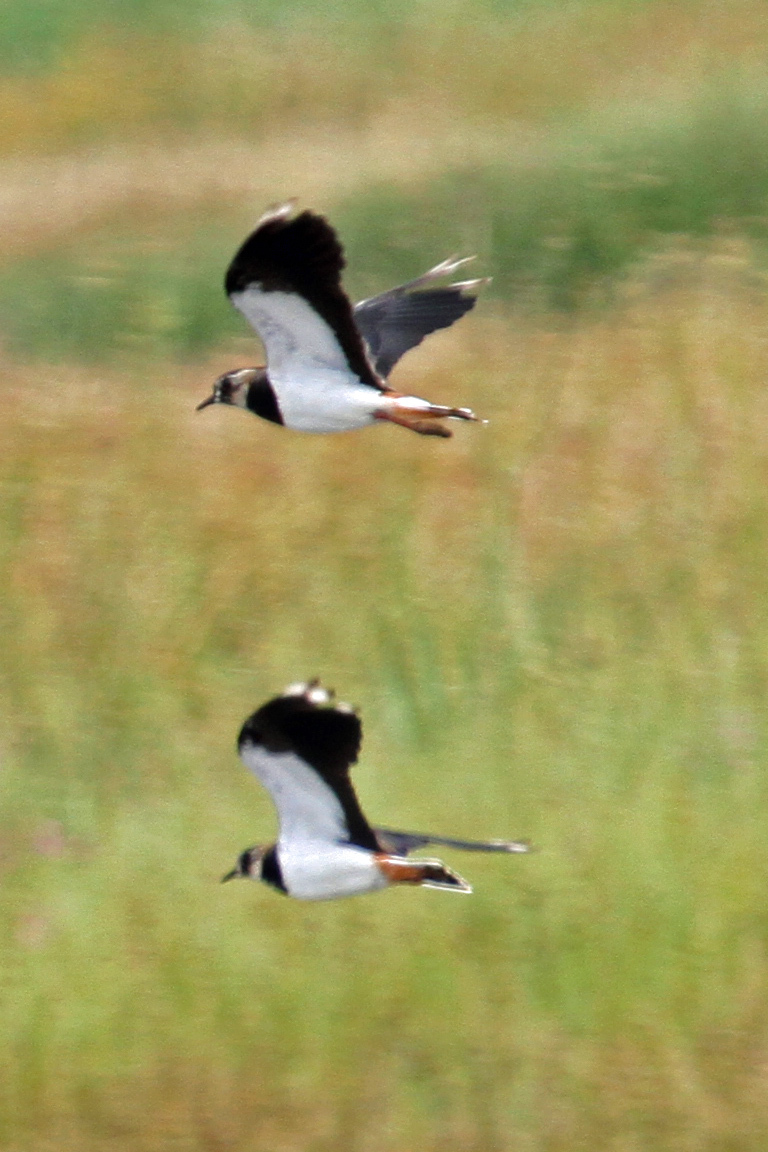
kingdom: Animalia
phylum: Chordata
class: Aves
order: Charadriiformes
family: Charadriidae
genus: Vanellus
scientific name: Vanellus vanellus
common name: Northern lapwing
